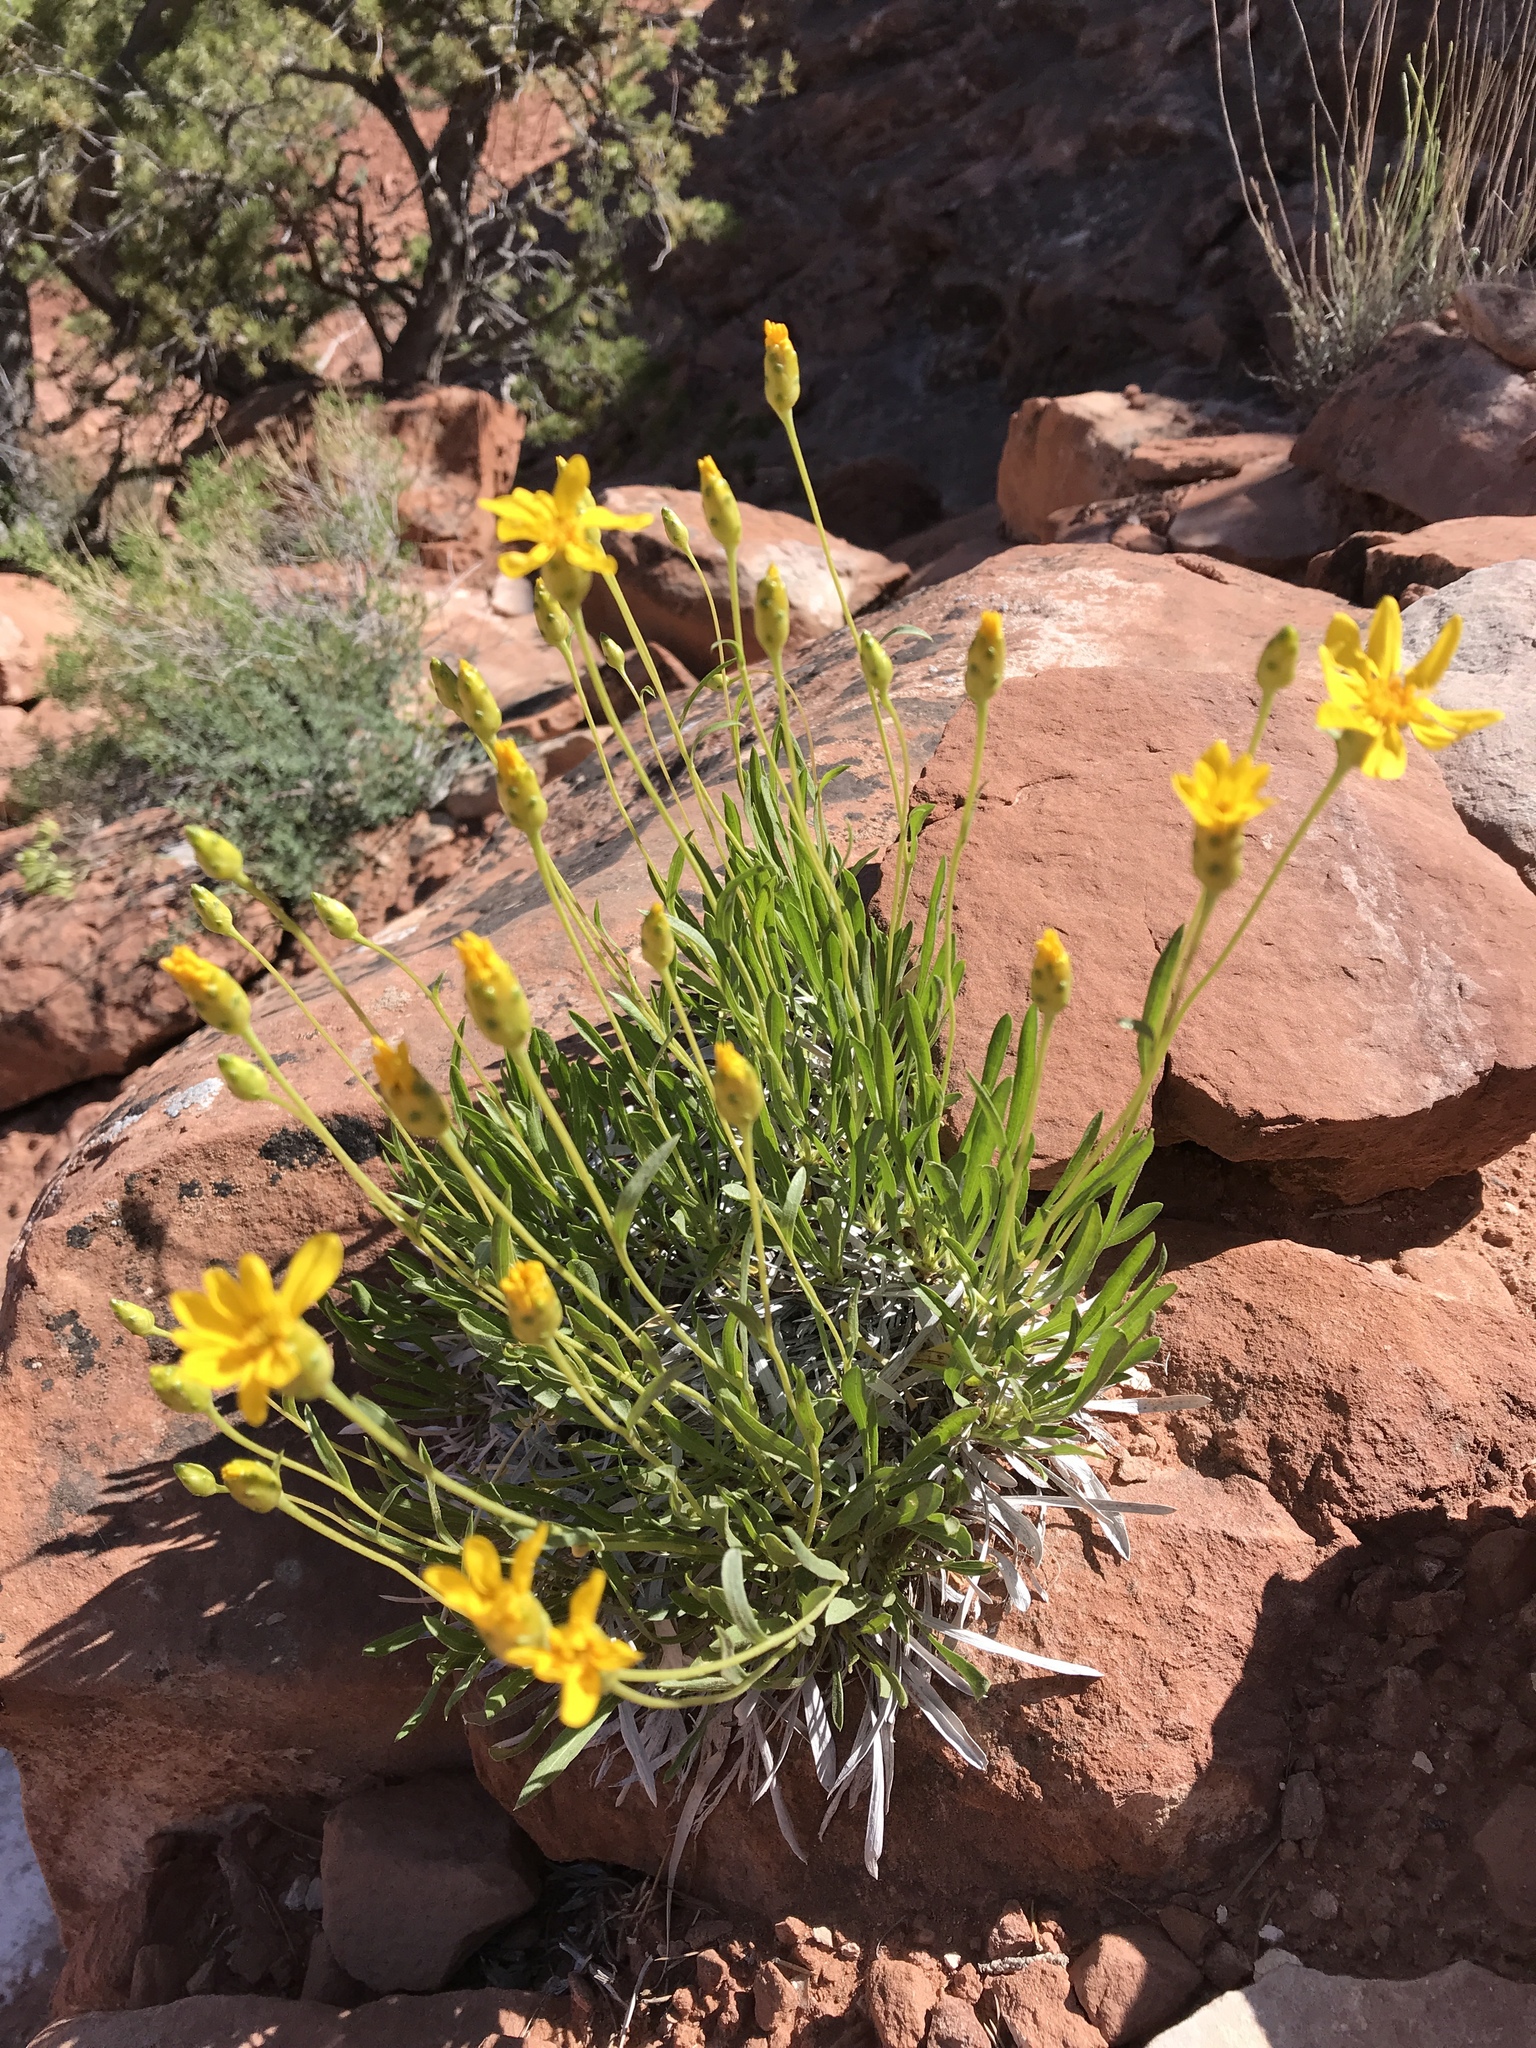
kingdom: Plantae
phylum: Tracheophyta
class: Magnoliopsida
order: Asterales
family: Asteraceae
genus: Stenotus
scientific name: Stenotus armerioides
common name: Thrifty goldenweed
